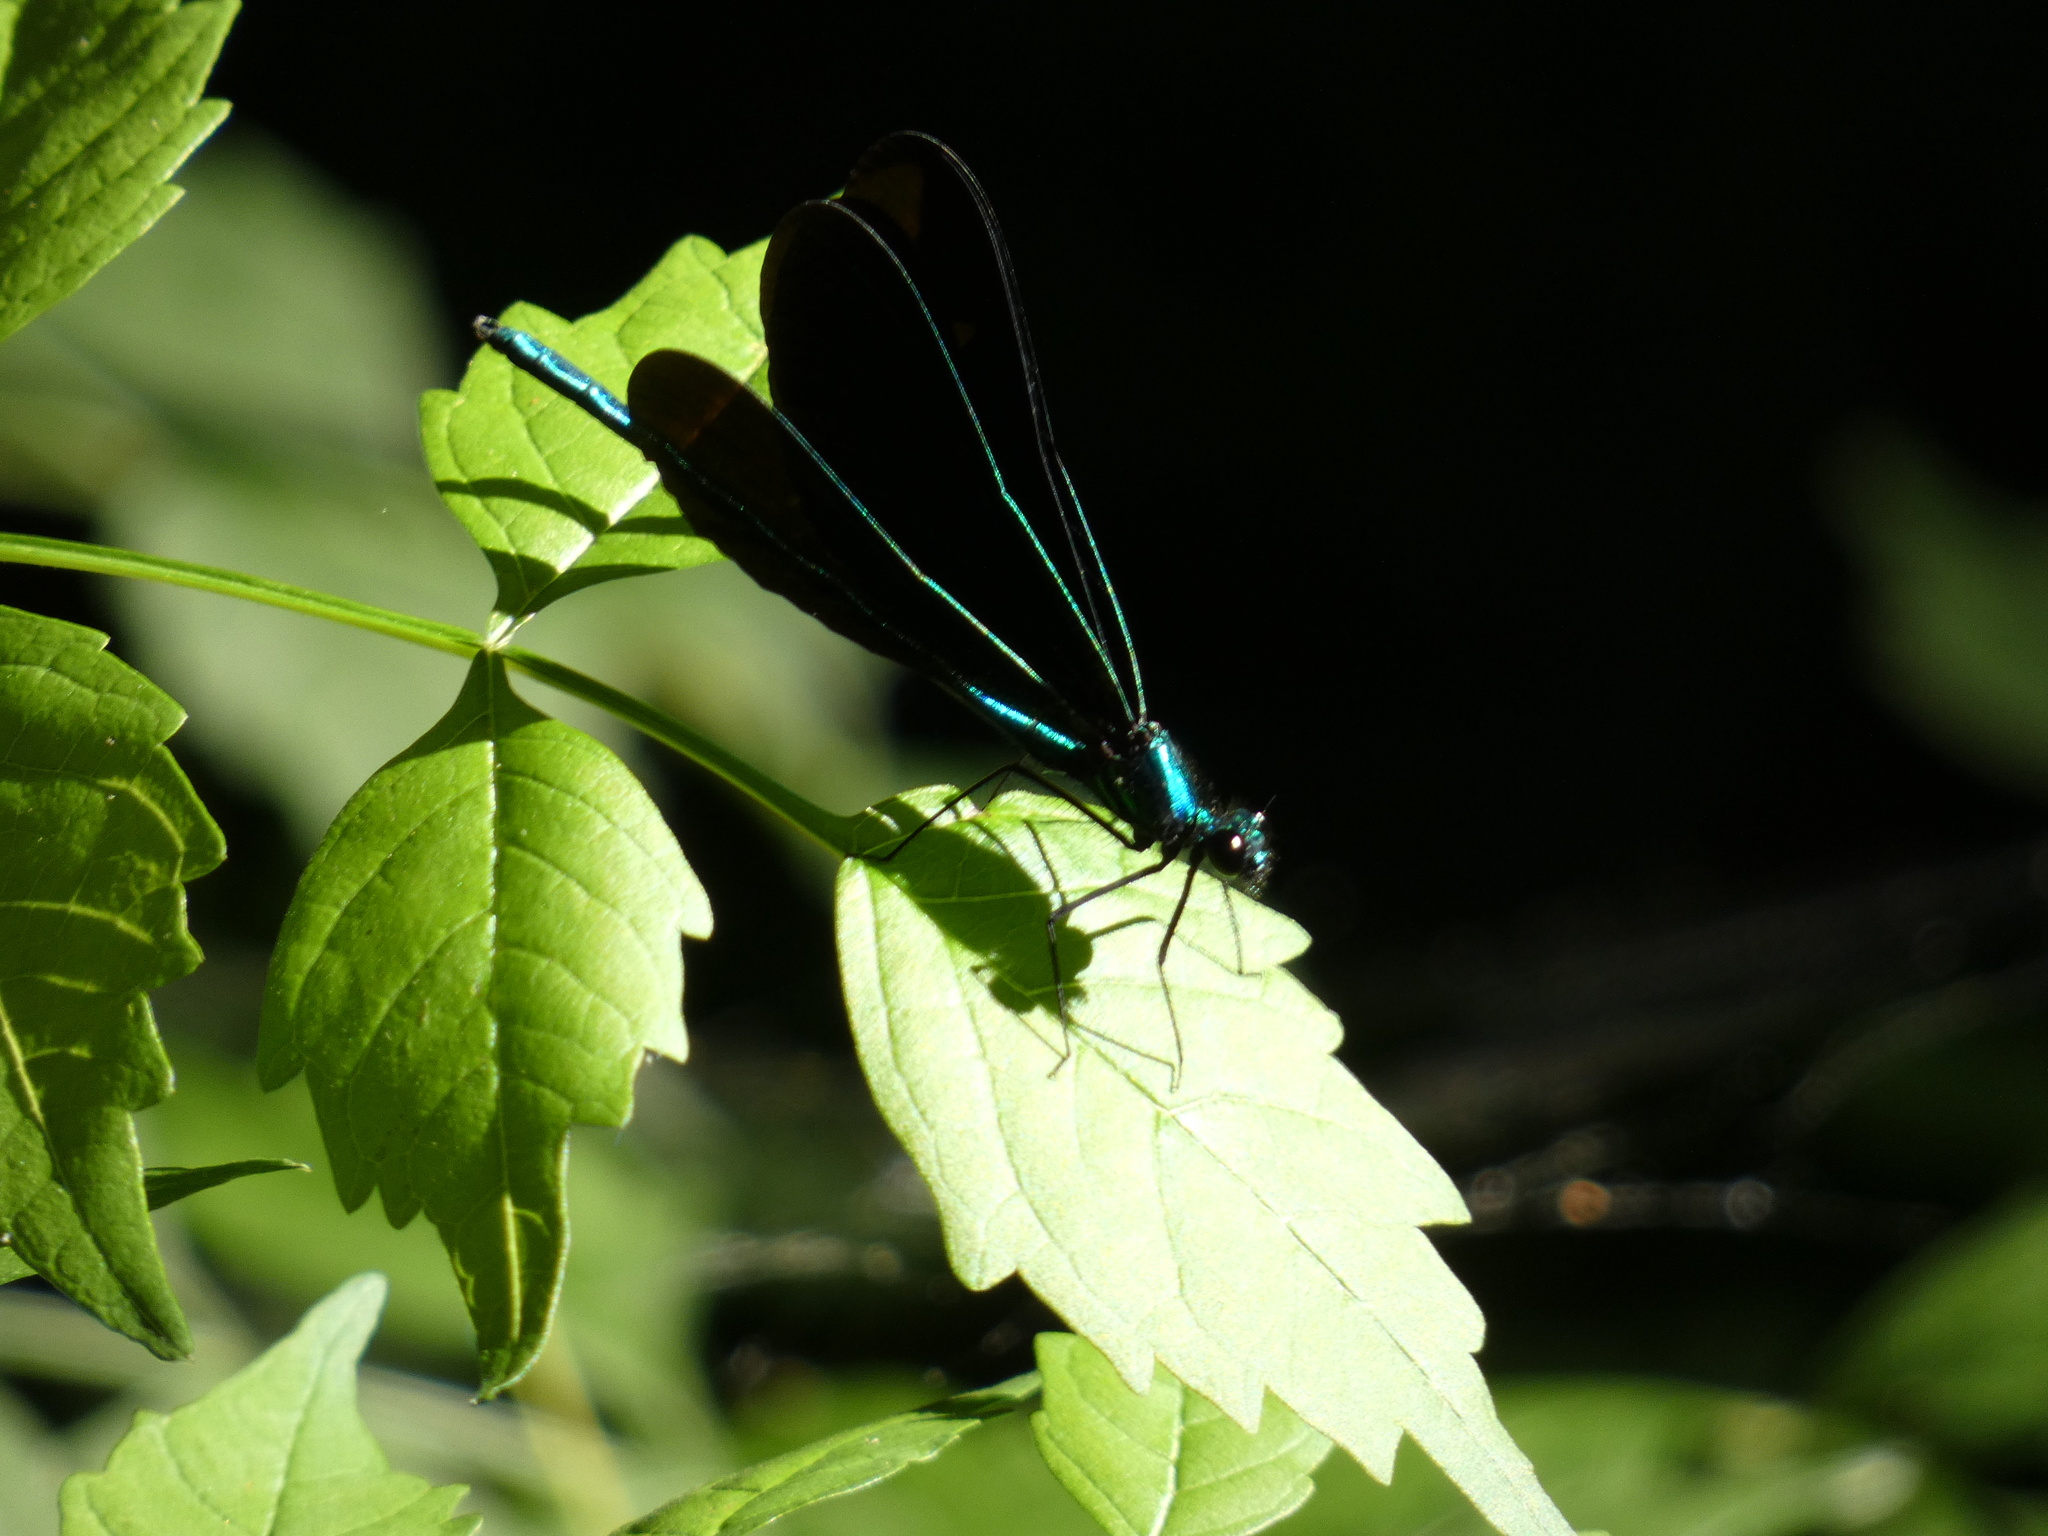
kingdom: Animalia
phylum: Arthropoda
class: Insecta
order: Odonata
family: Calopterygidae
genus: Calopteryx
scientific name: Calopteryx maculata
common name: Ebony jewelwing
